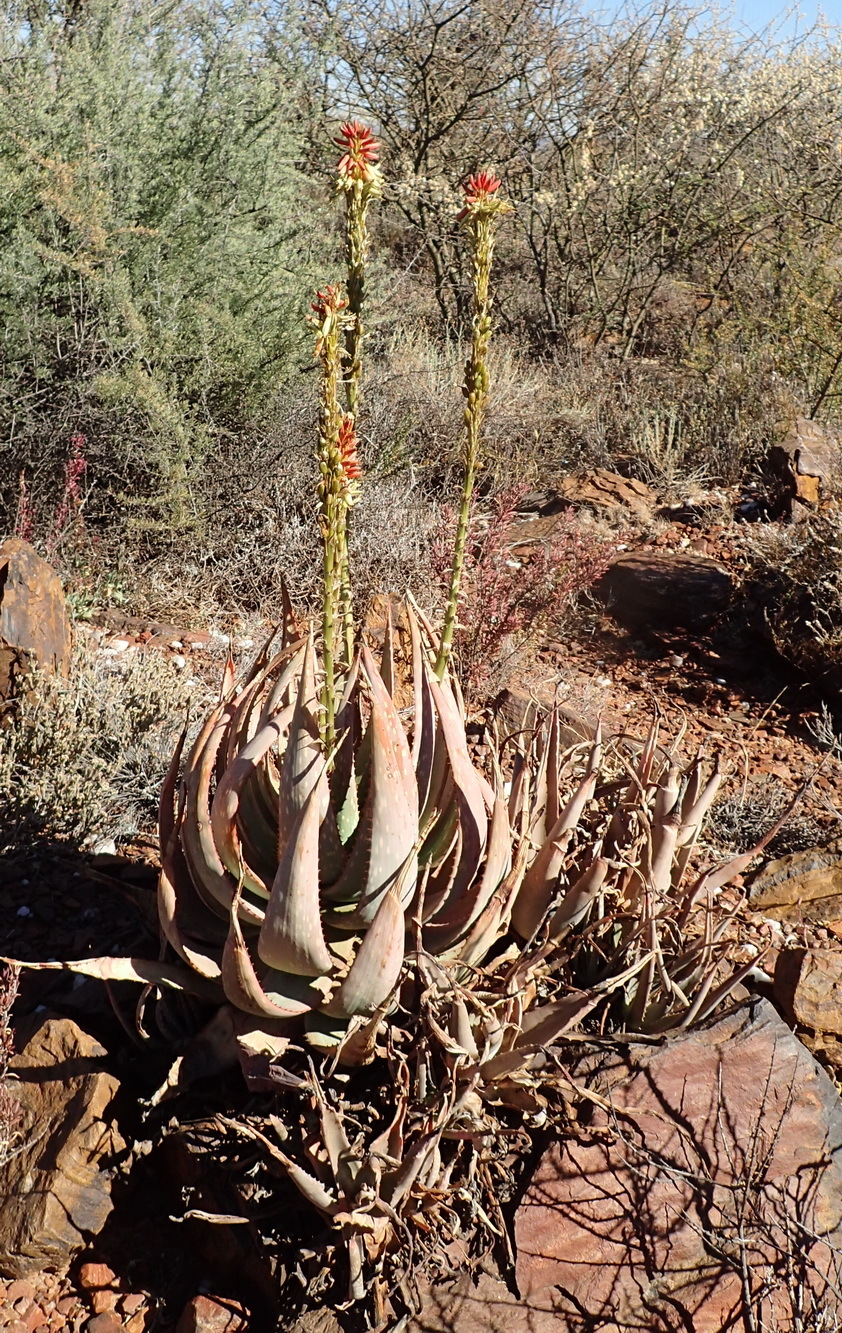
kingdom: Plantae
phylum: Tracheophyta
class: Liliopsida
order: Asparagales
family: Asphodelaceae
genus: Aloe
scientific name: Aloe gariepensis
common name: Orange river aloe
